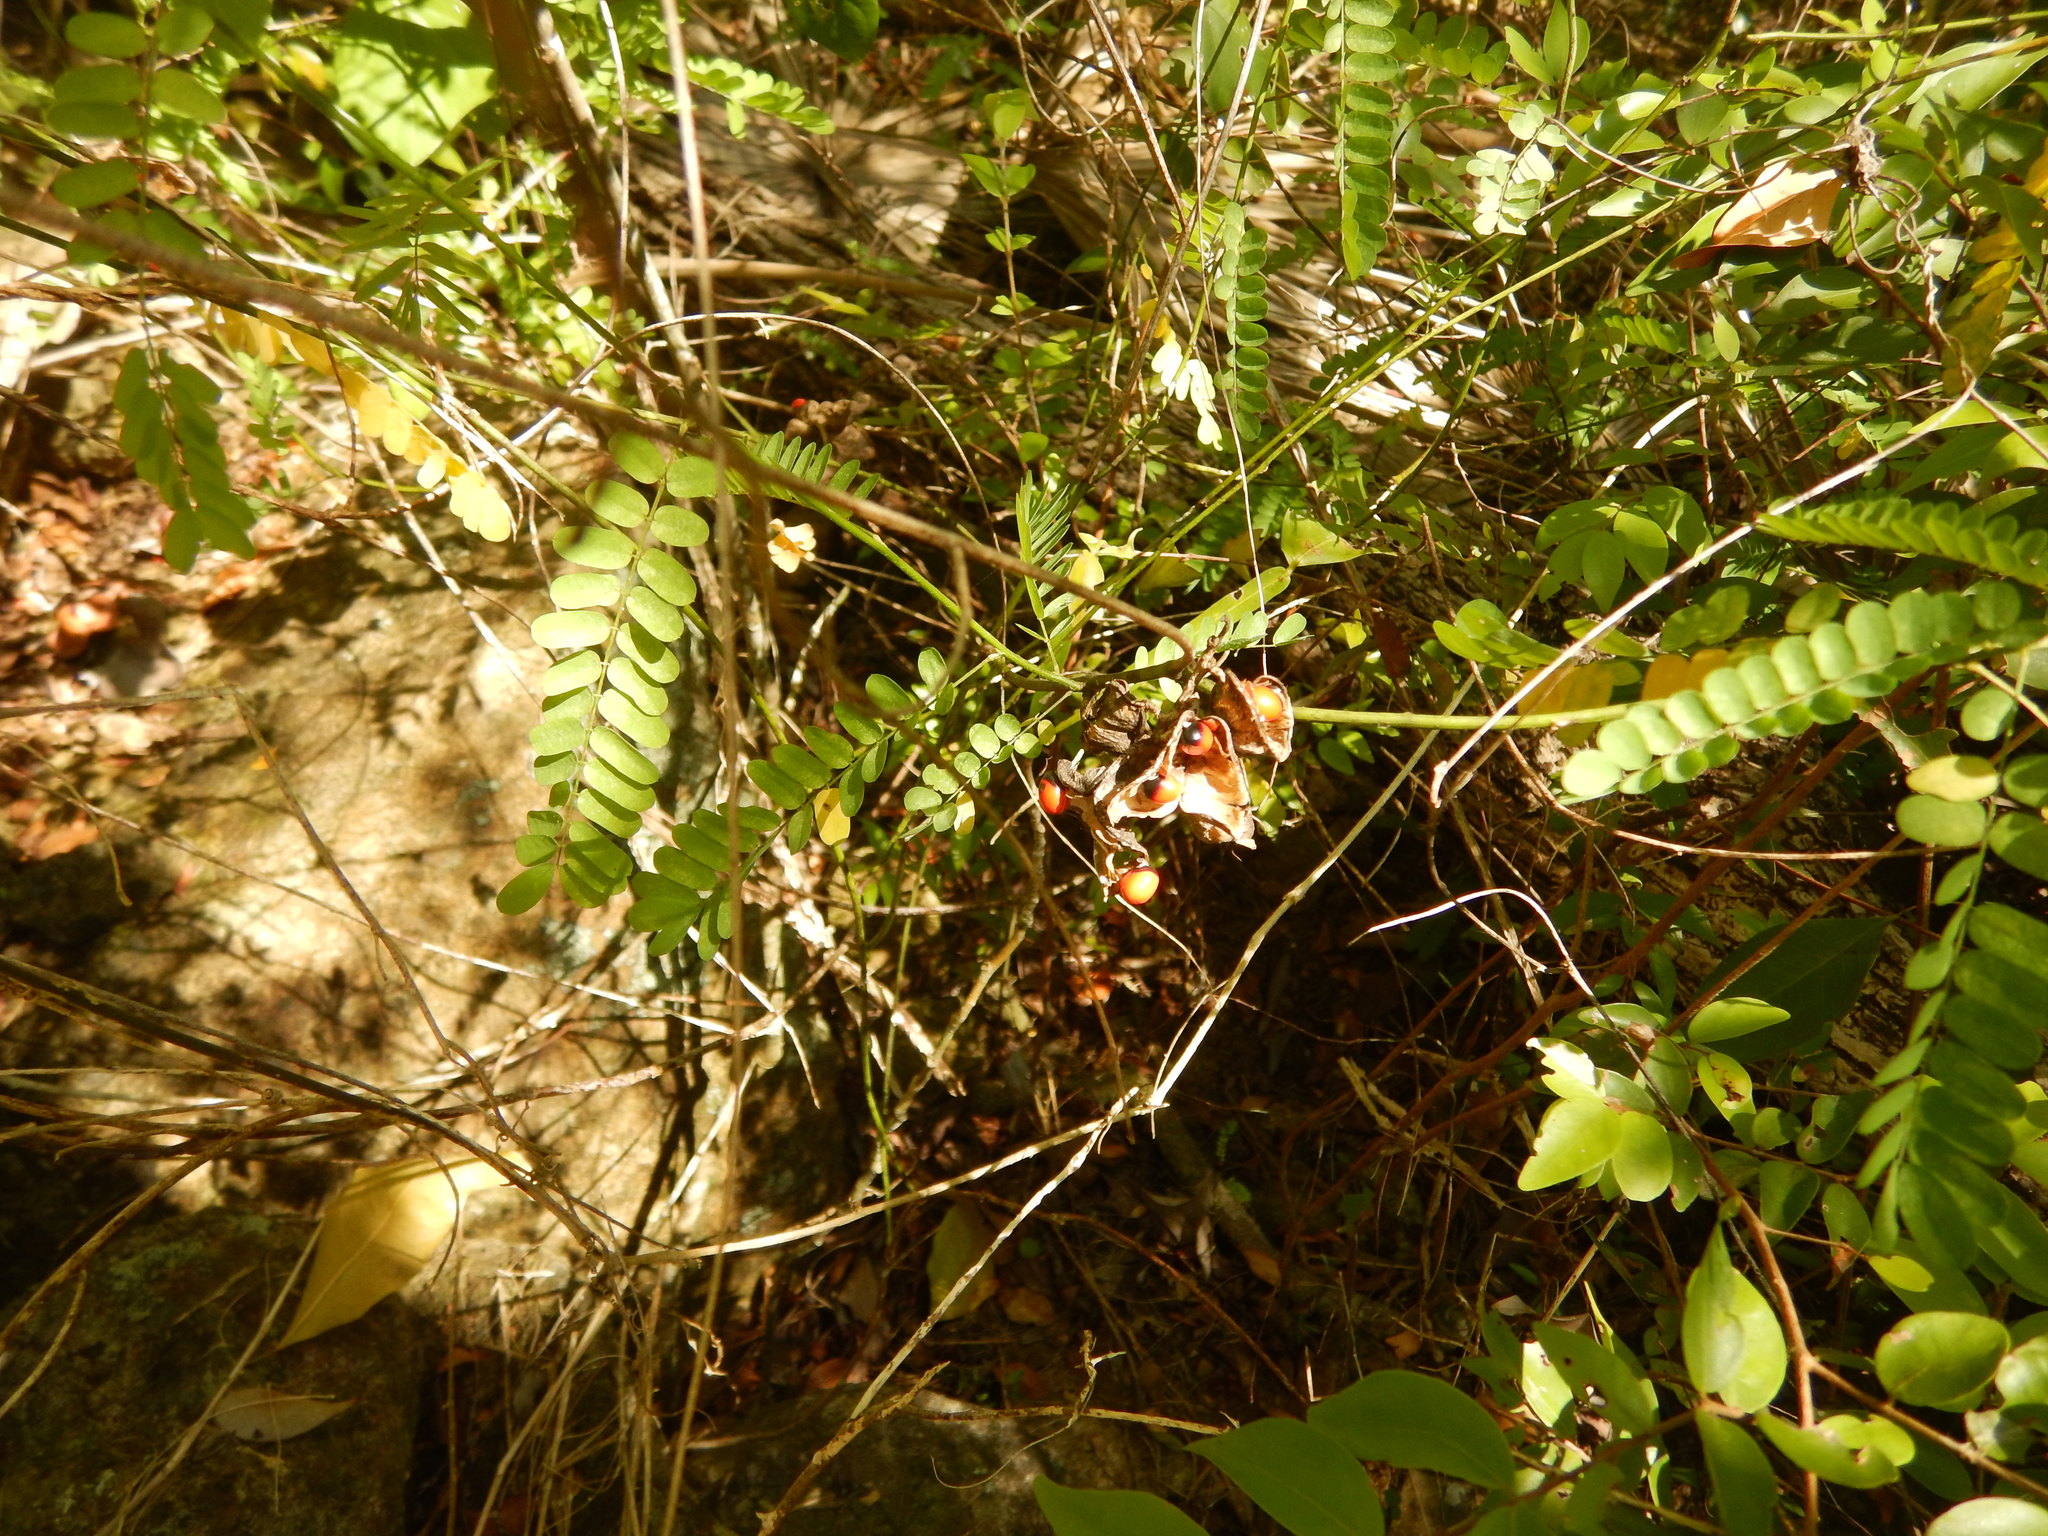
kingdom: Plantae
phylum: Tracheophyta
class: Magnoliopsida
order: Fabales
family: Fabaceae
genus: Abrus
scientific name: Abrus precatorius
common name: Rosarypea
